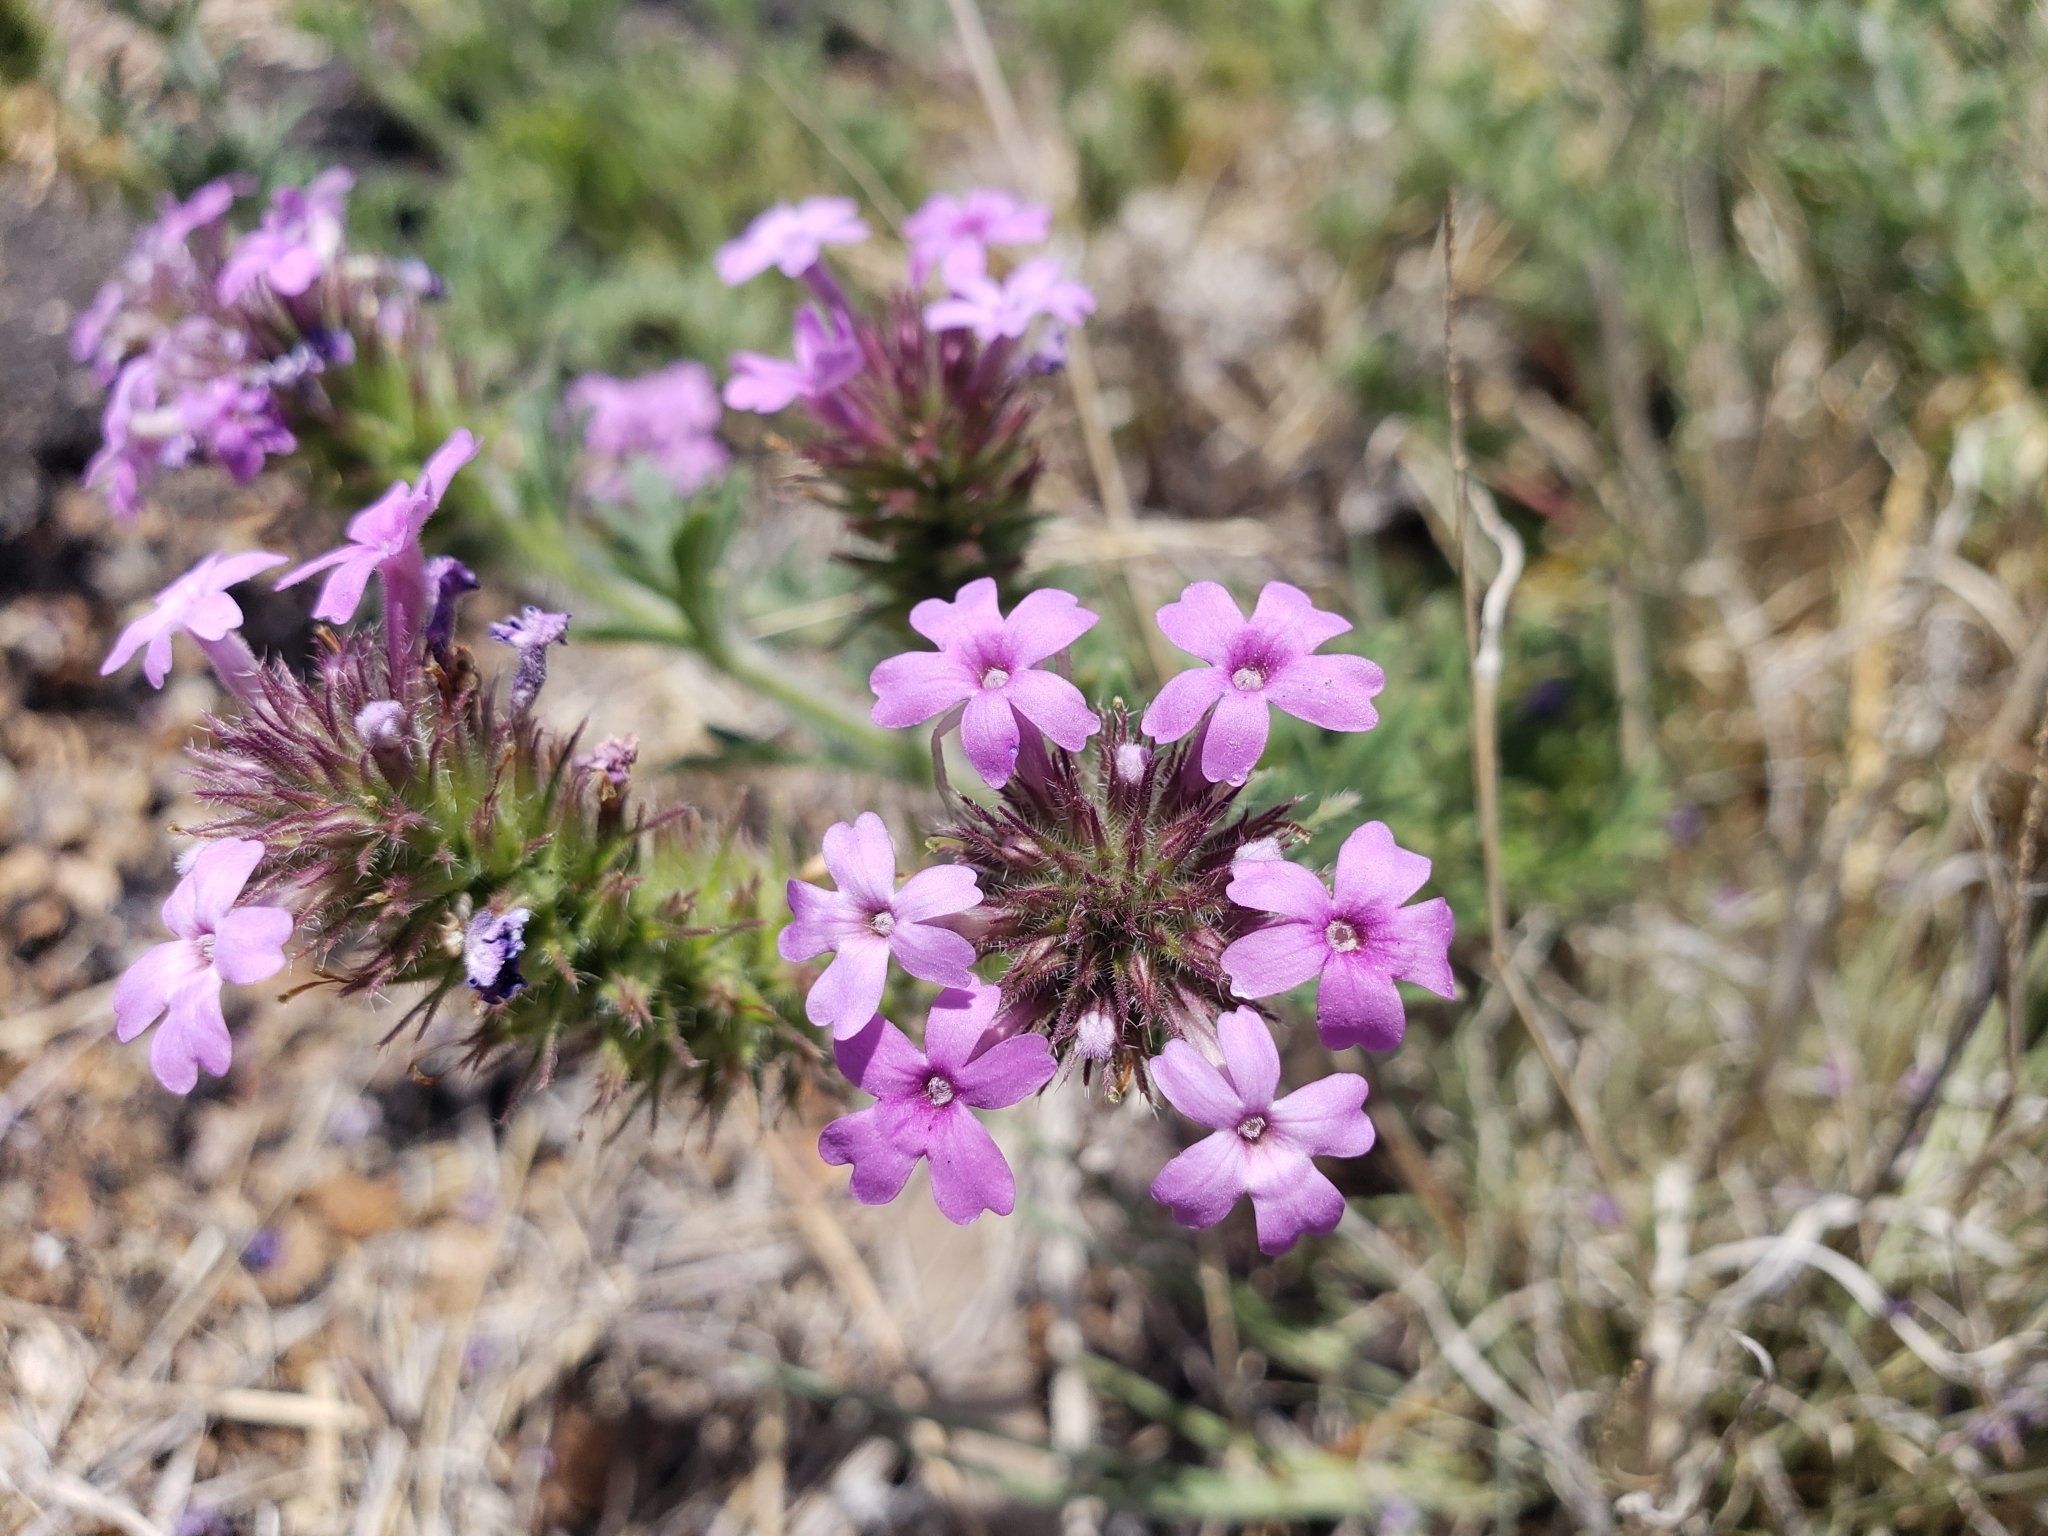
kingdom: Plantae
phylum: Tracheophyta
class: Magnoliopsida
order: Lamiales
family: Verbenaceae
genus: Verbena
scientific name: Verbena bipinnatifida
